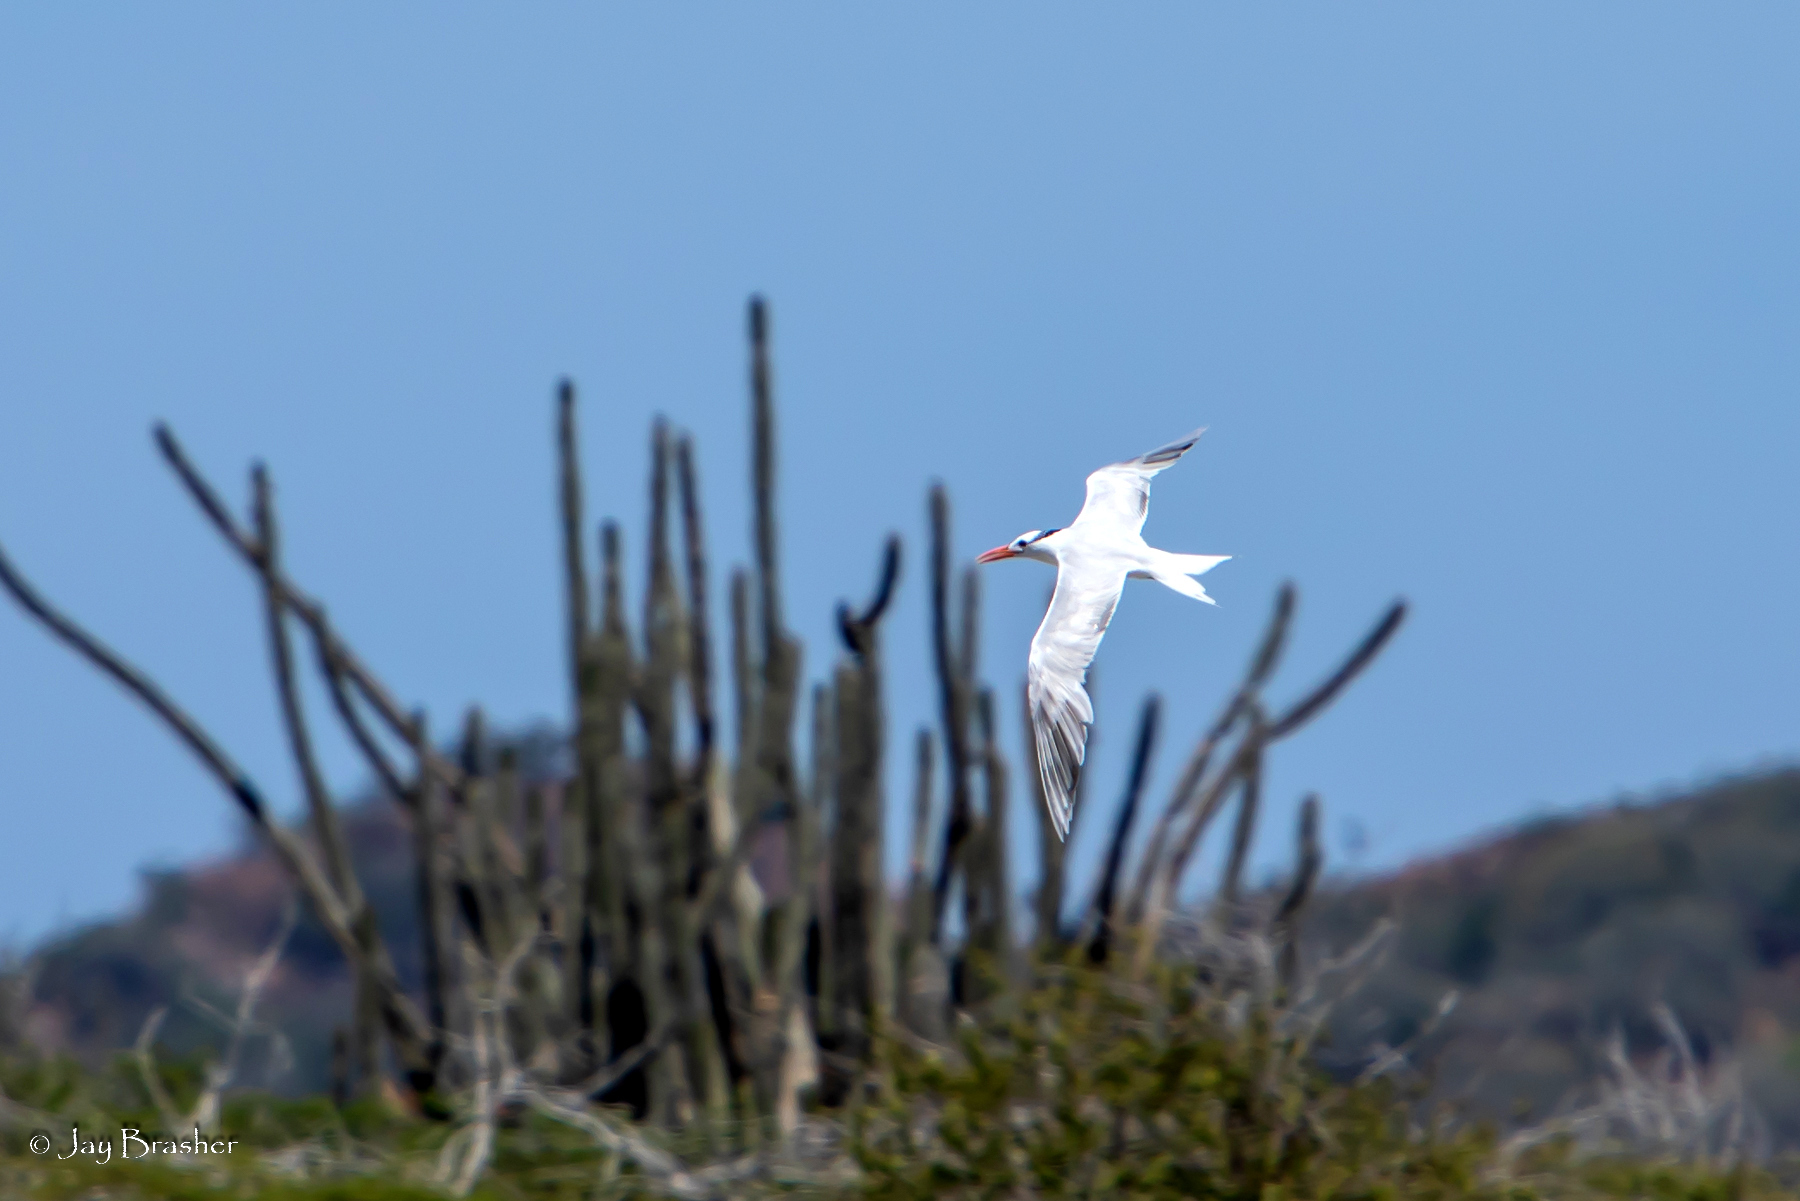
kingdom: Animalia
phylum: Chordata
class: Aves
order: Charadriiformes
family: Laridae
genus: Thalasseus
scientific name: Thalasseus maximus
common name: Royal tern
